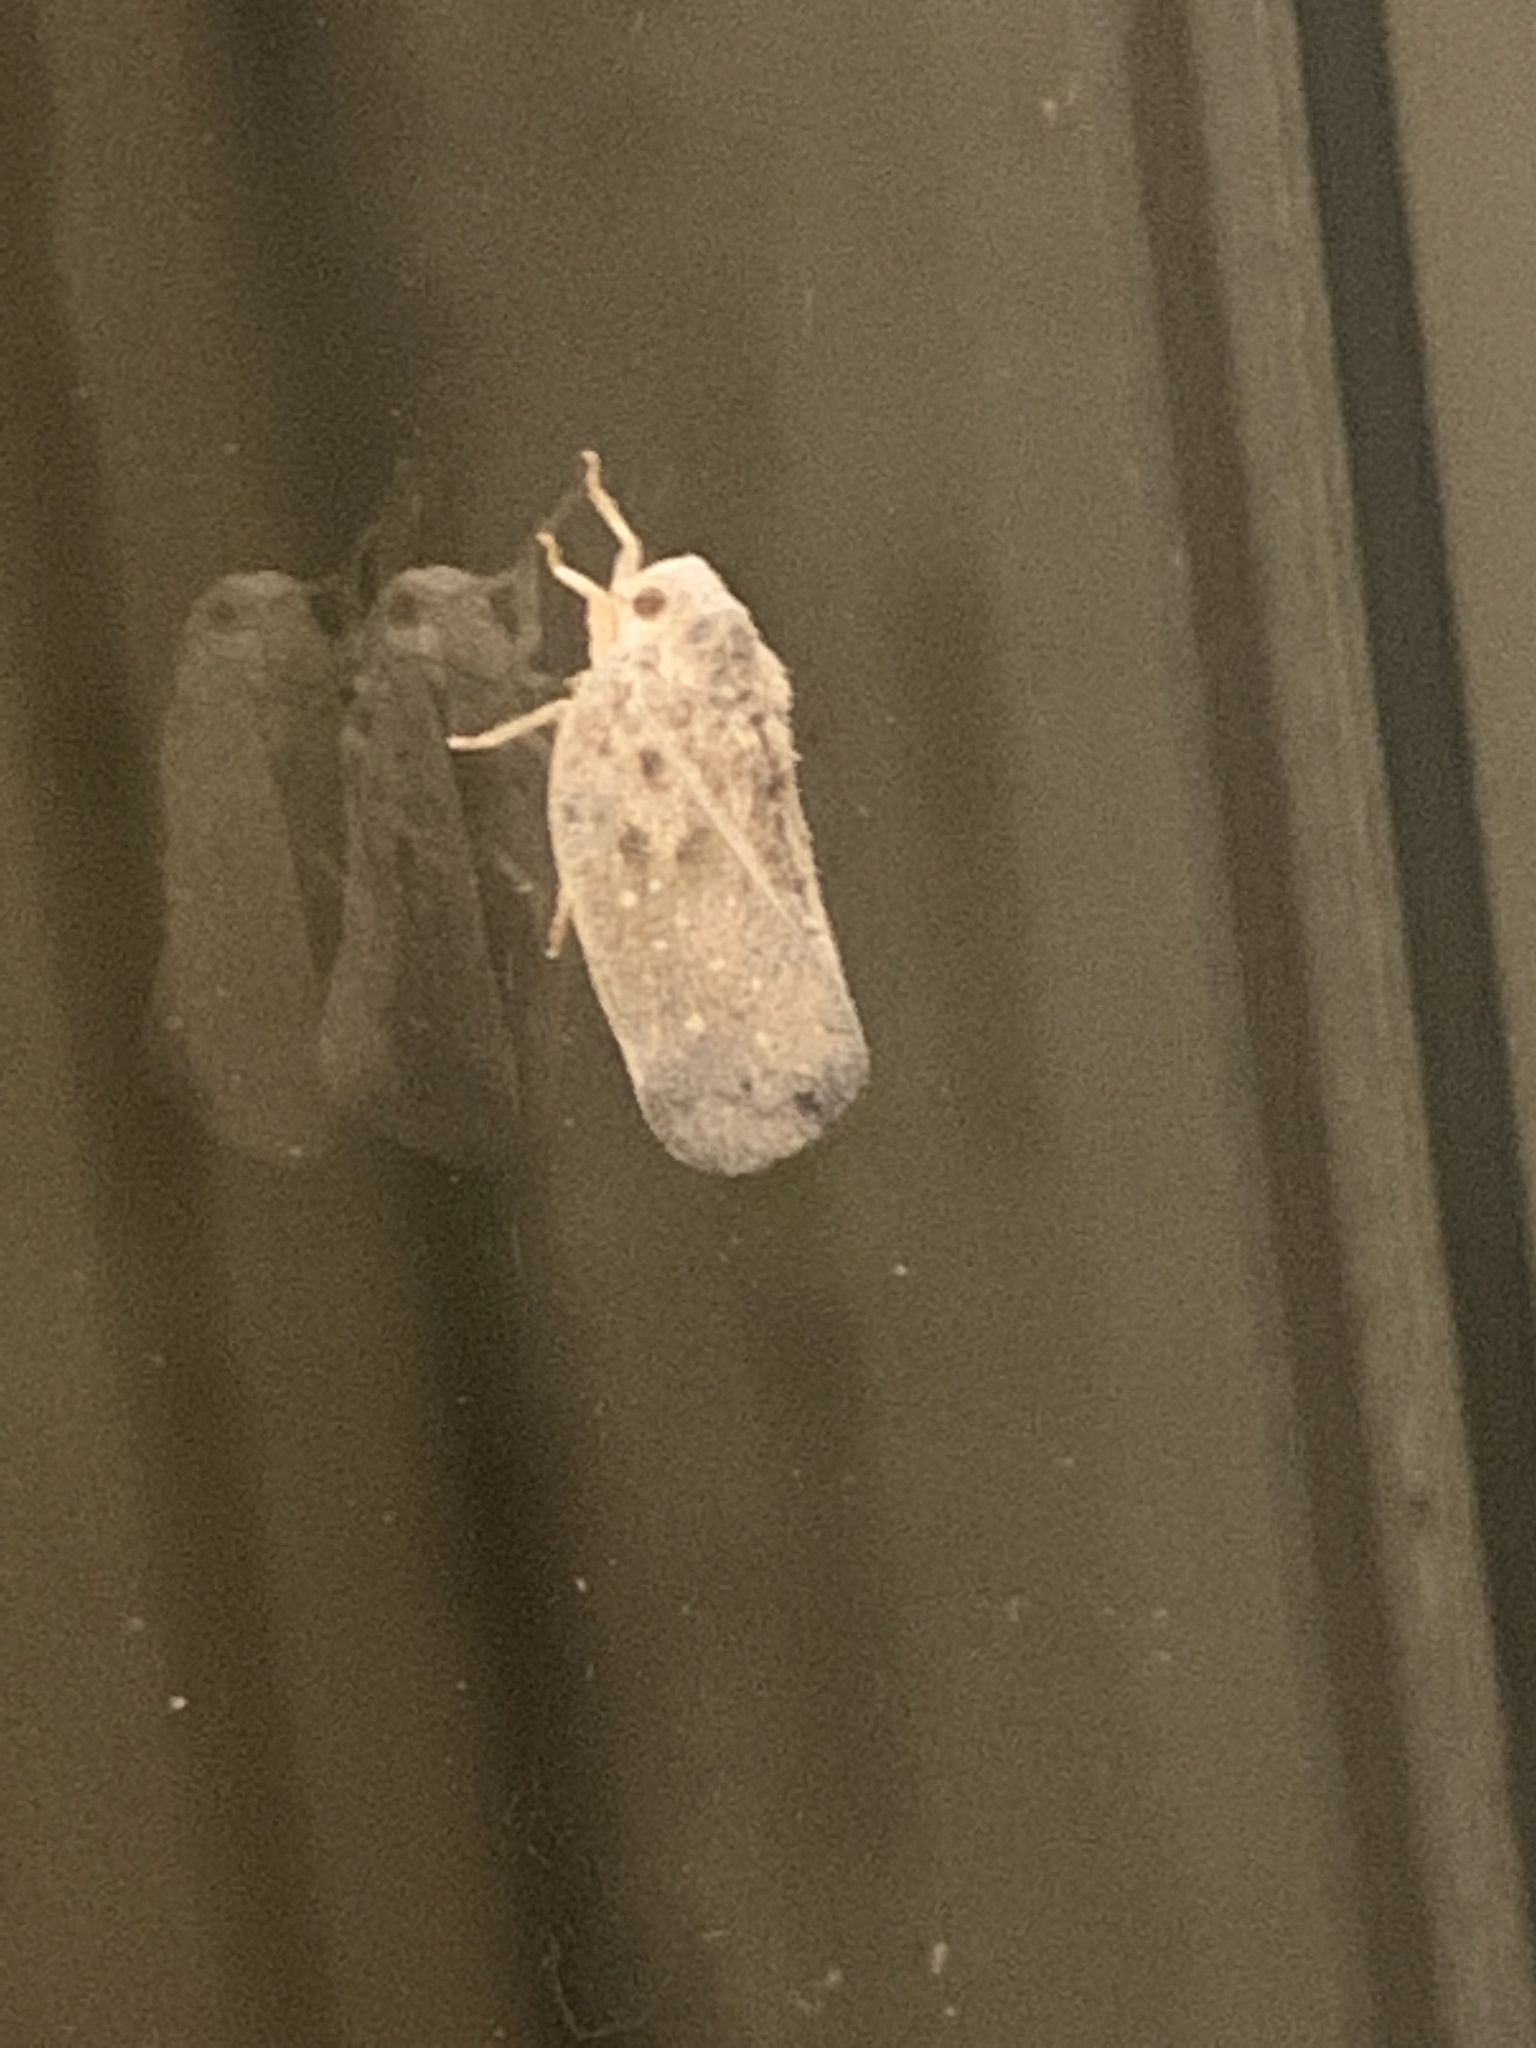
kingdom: Animalia
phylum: Arthropoda
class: Insecta
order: Hemiptera
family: Flatidae
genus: Metcalfa
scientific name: Metcalfa pruinosa
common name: Citrus flatid planthopper
